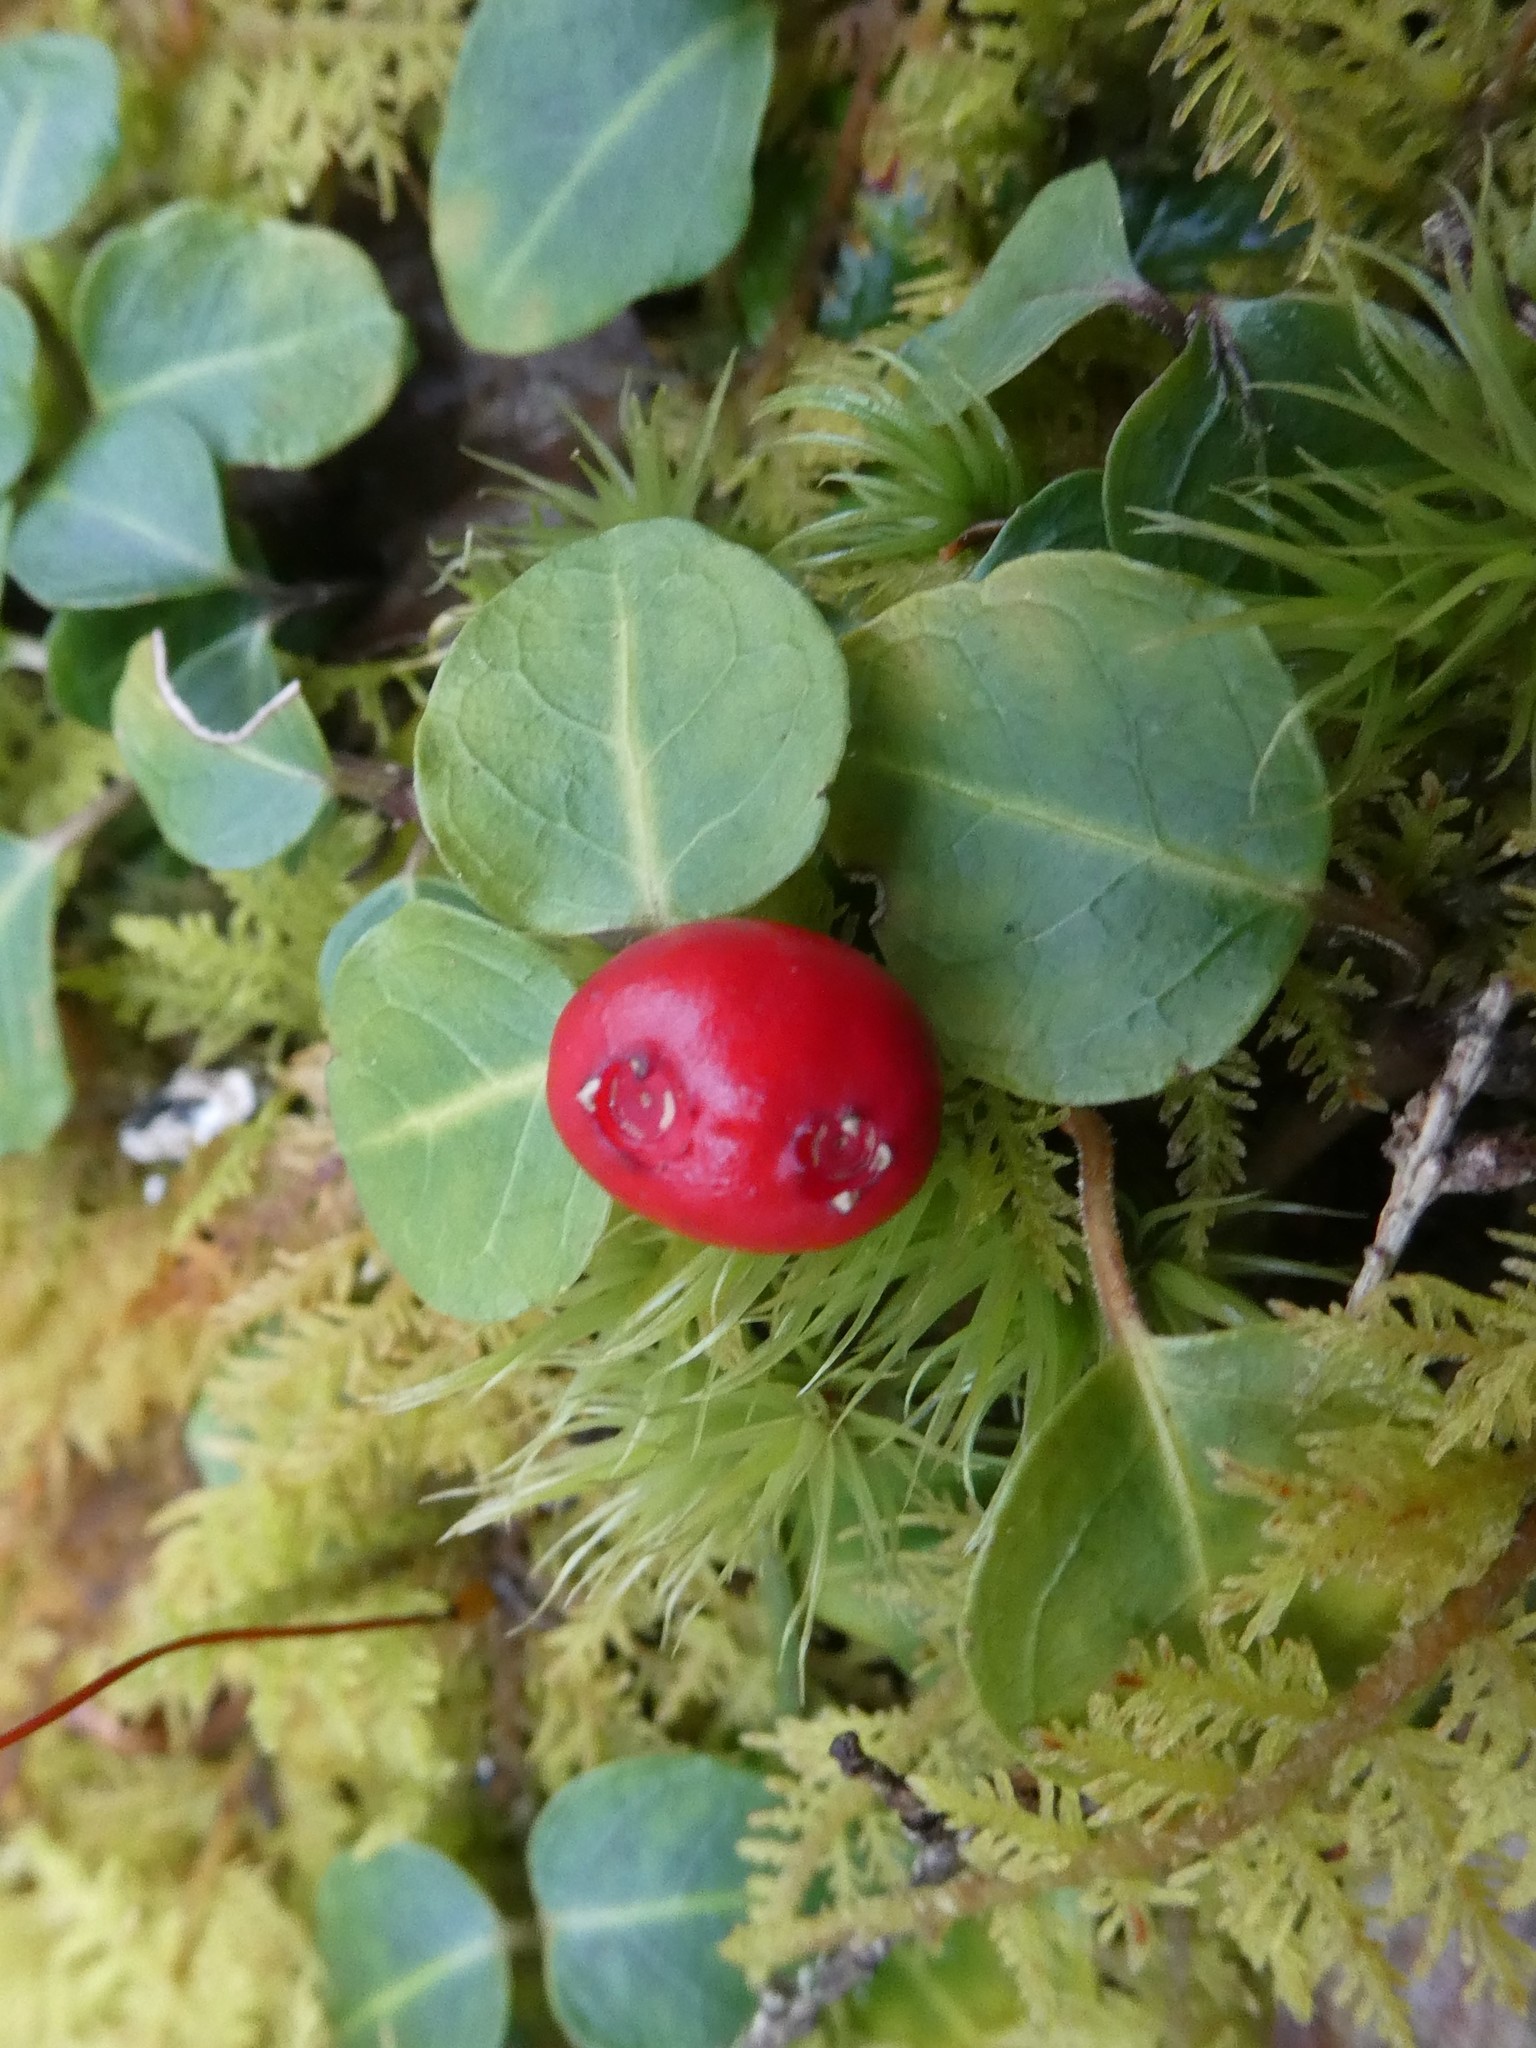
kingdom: Plantae
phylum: Tracheophyta
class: Magnoliopsida
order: Gentianales
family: Rubiaceae
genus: Mitchella
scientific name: Mitchella repens
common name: Partridge-berry
